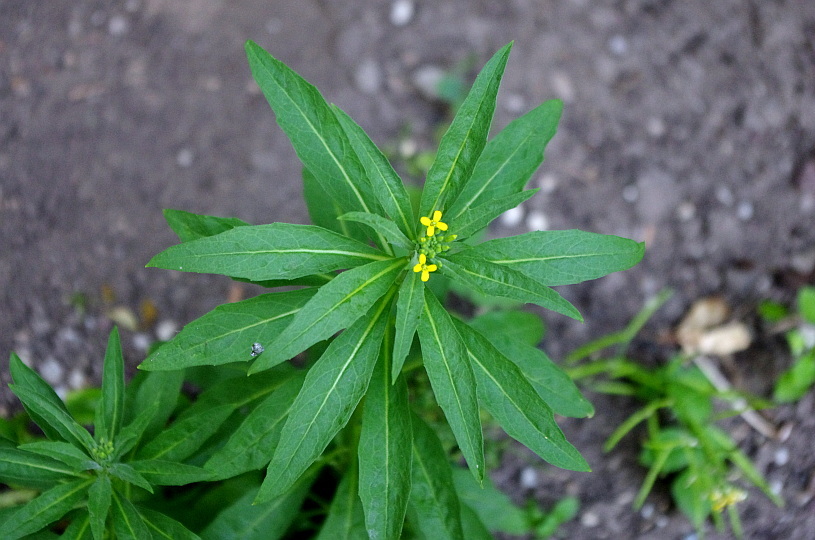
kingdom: Plantae
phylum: Tracheophyta
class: Magnoliopsida
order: Brassicales
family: Brassicaceae
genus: Erysimum
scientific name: Erysimum cheiranthoides
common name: Treacle mustard
